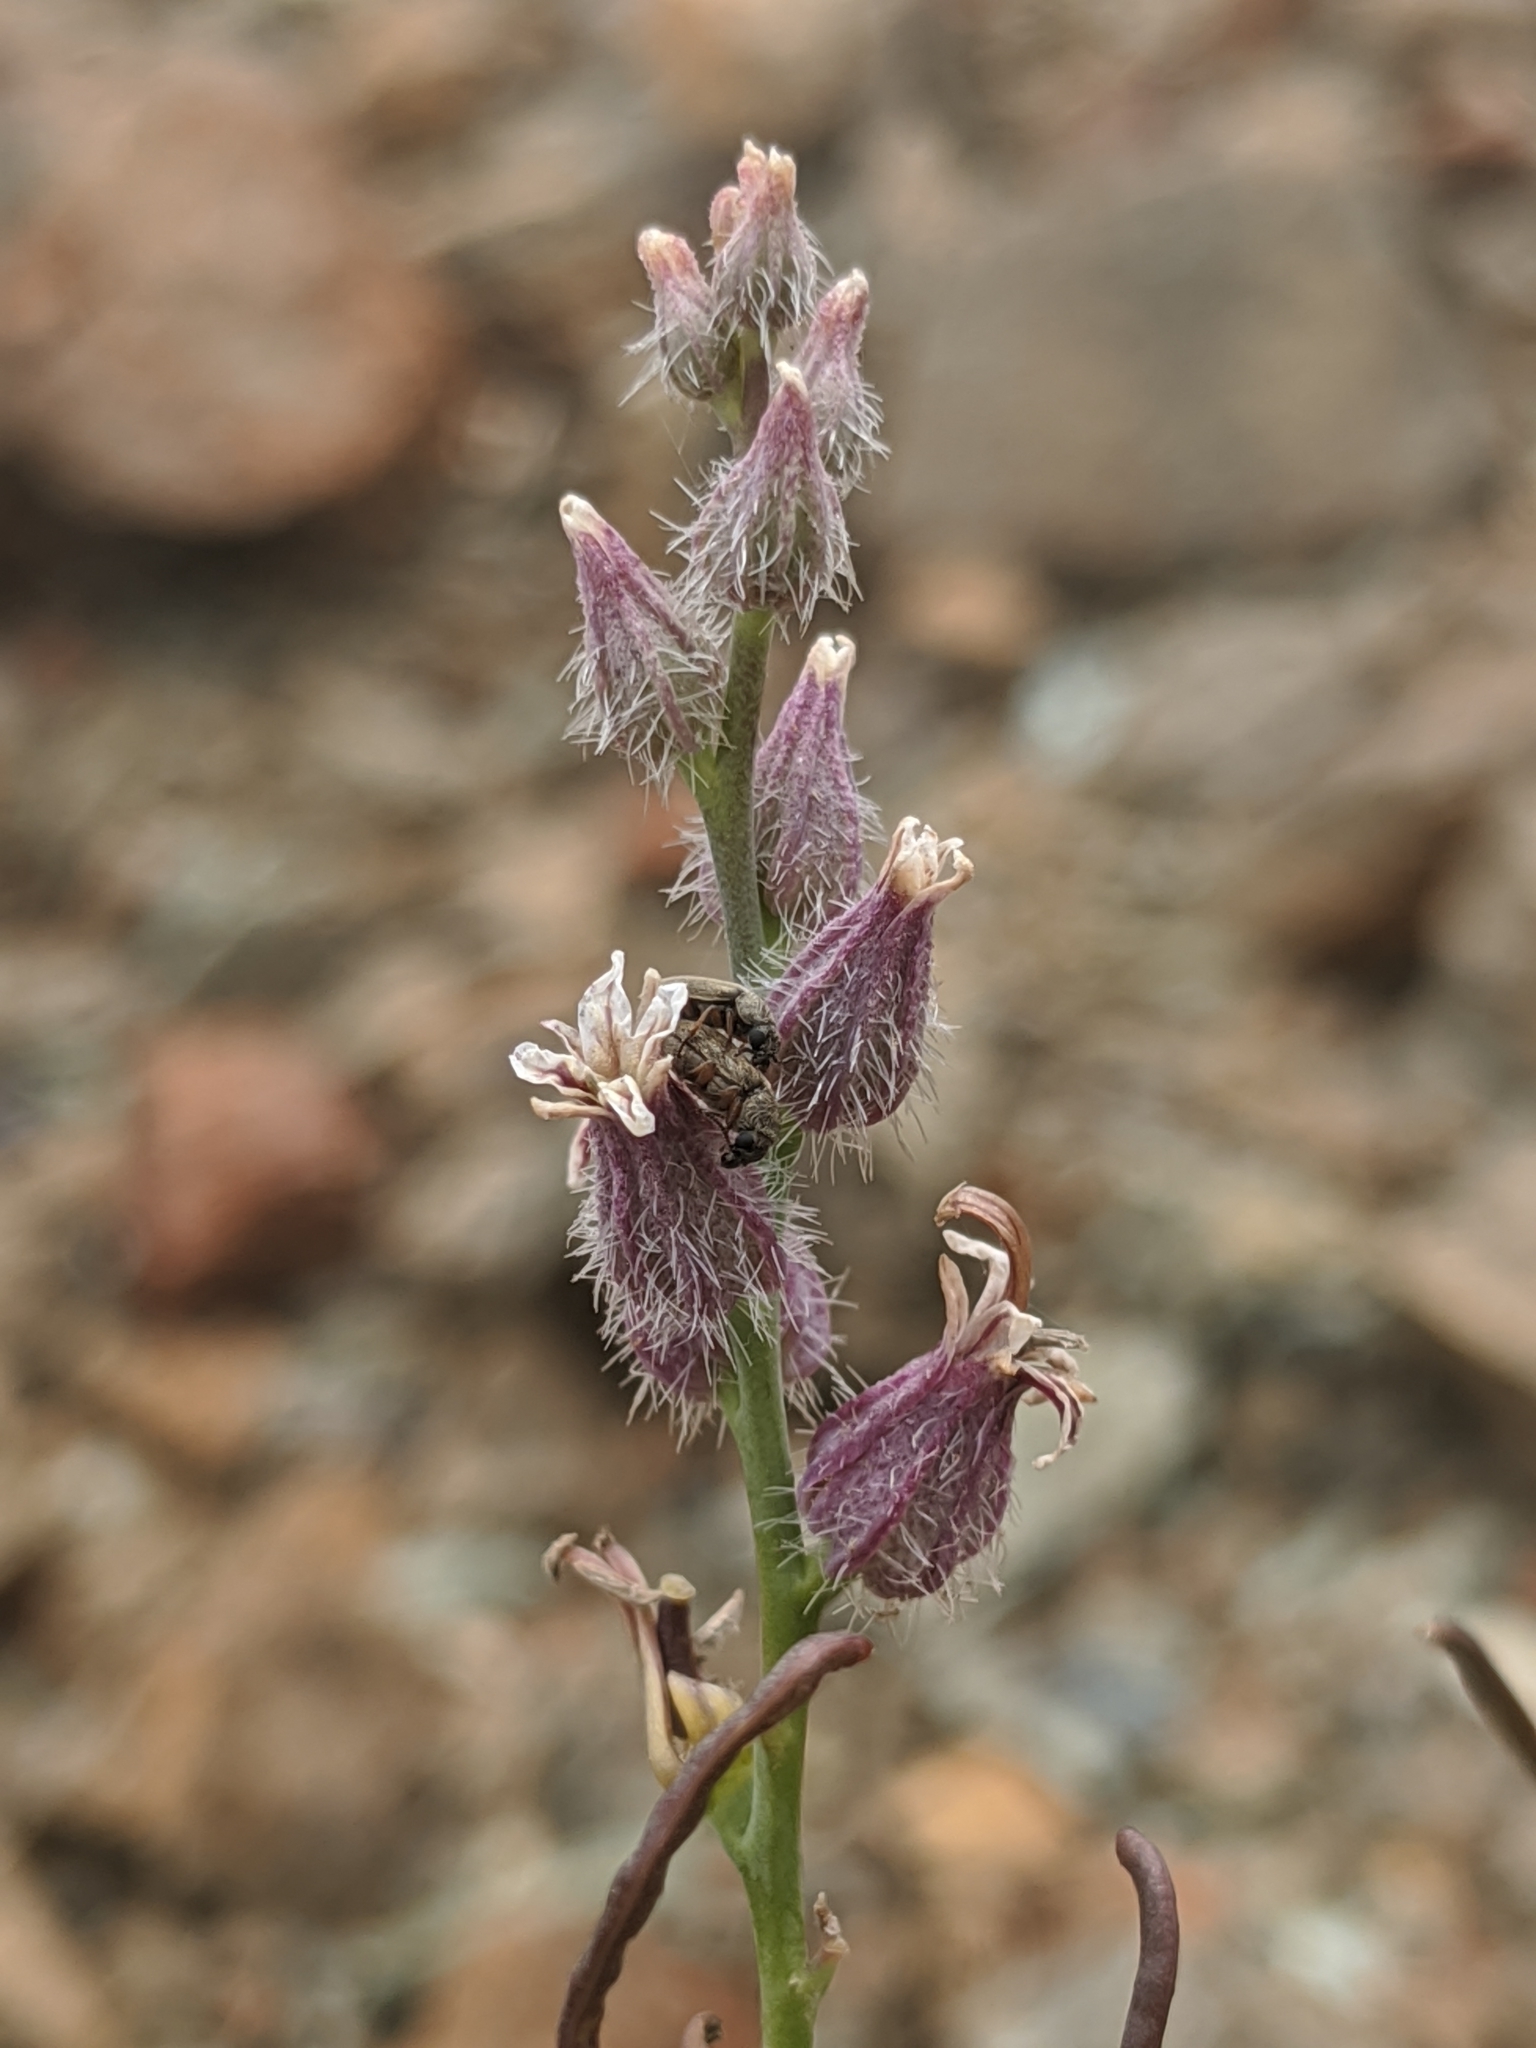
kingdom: Plantae
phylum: Tracheophyta
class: Magnoliopsida
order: Brassicales
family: Brassicaceae
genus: Streptanthus
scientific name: Streptanthus brachiatus
